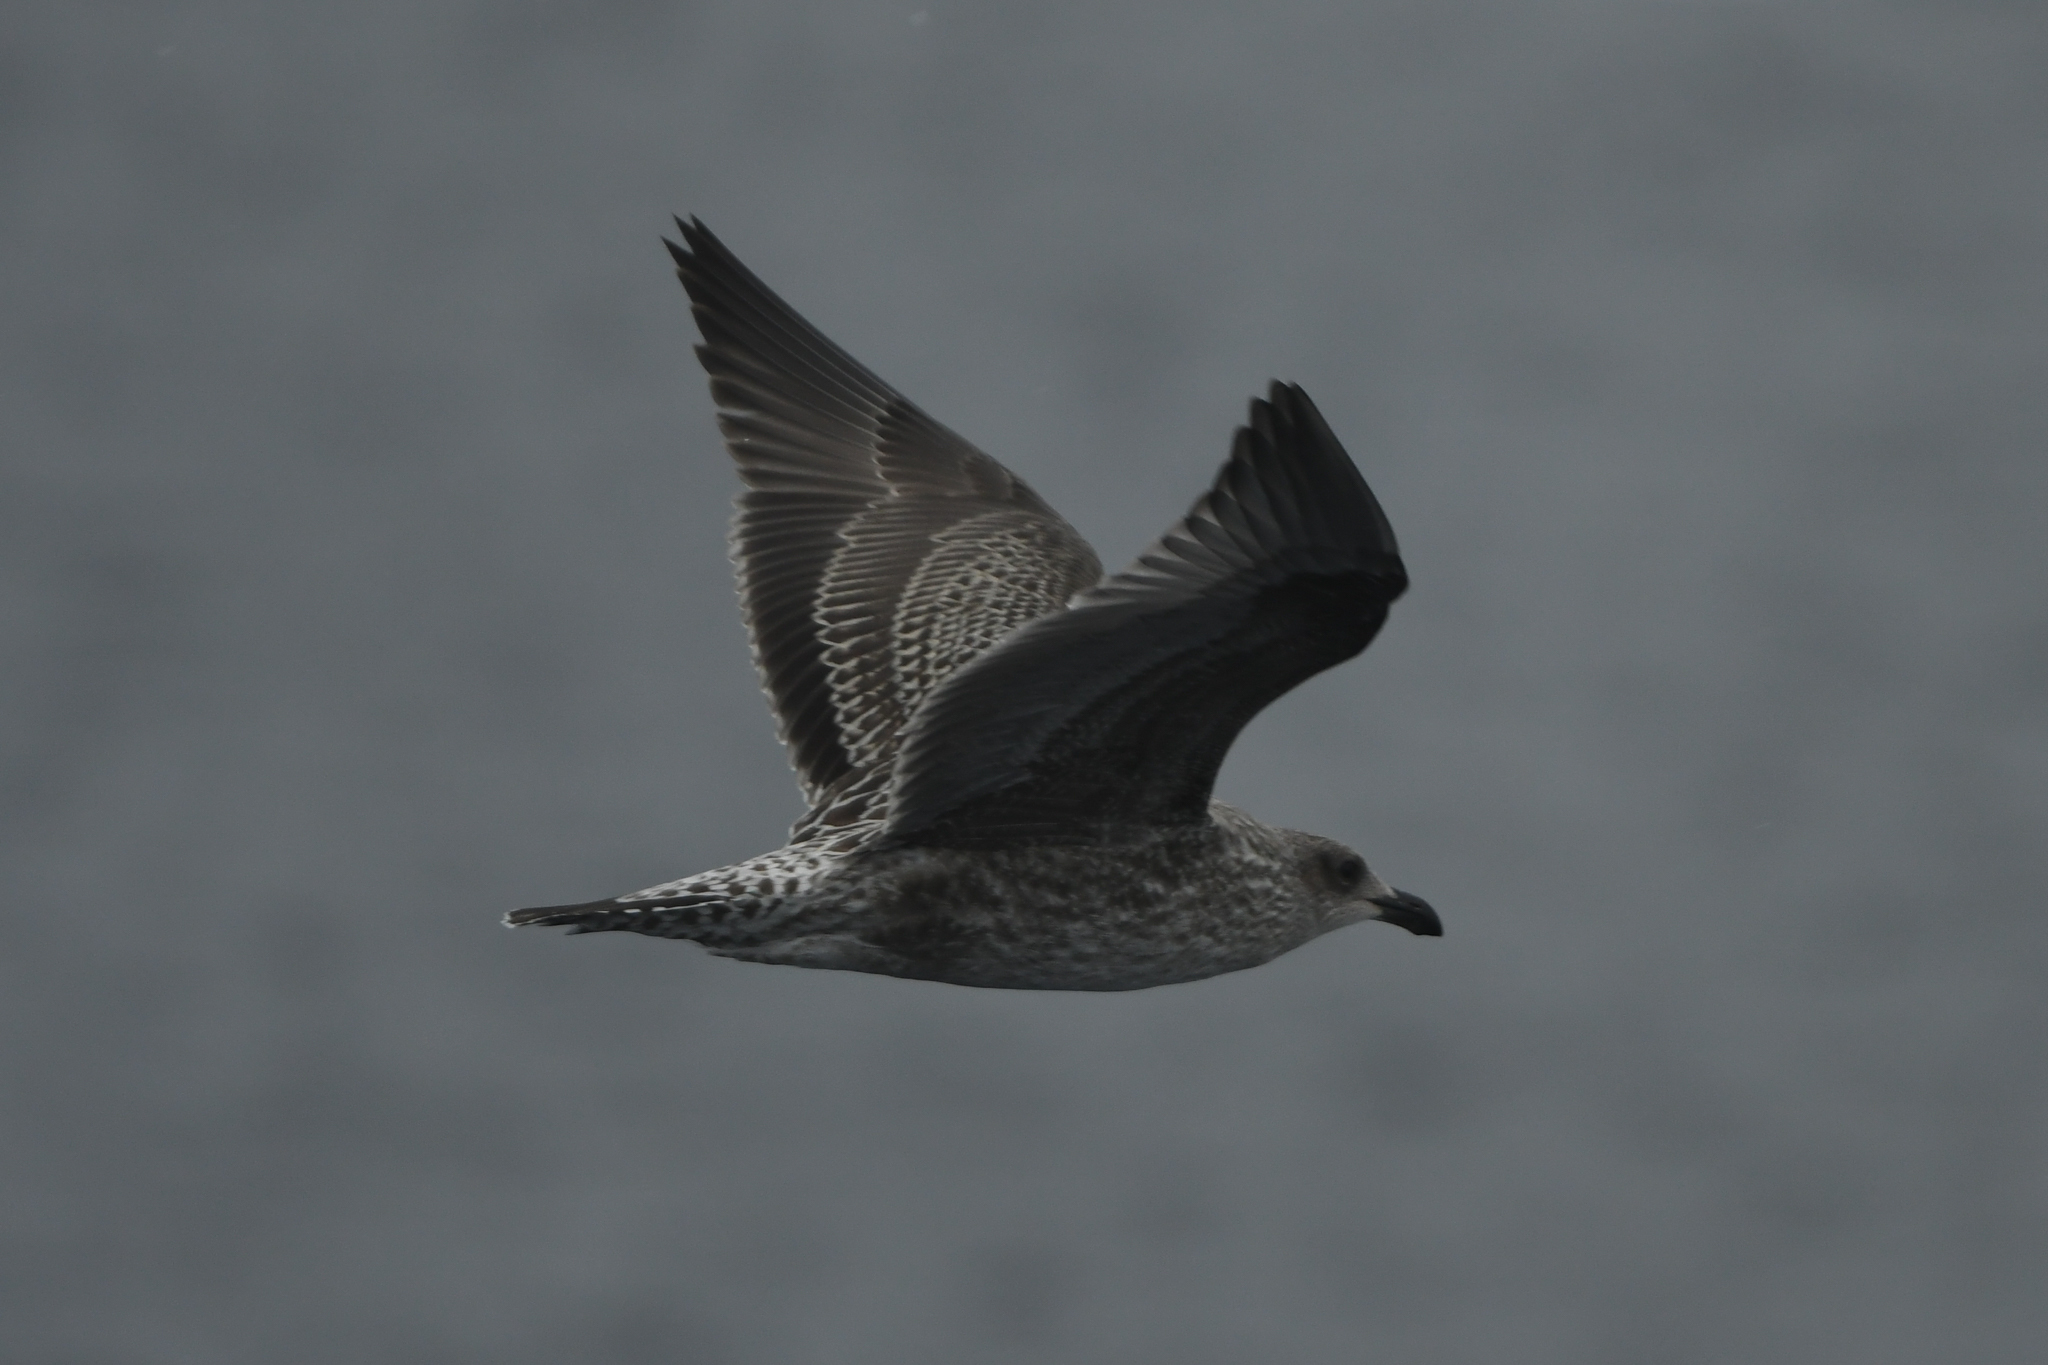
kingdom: Animalia
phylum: Chordata
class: Aves
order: Charadriiformes
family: Laridae
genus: Larus
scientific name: Larus dominicanus
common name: Kelp gull
